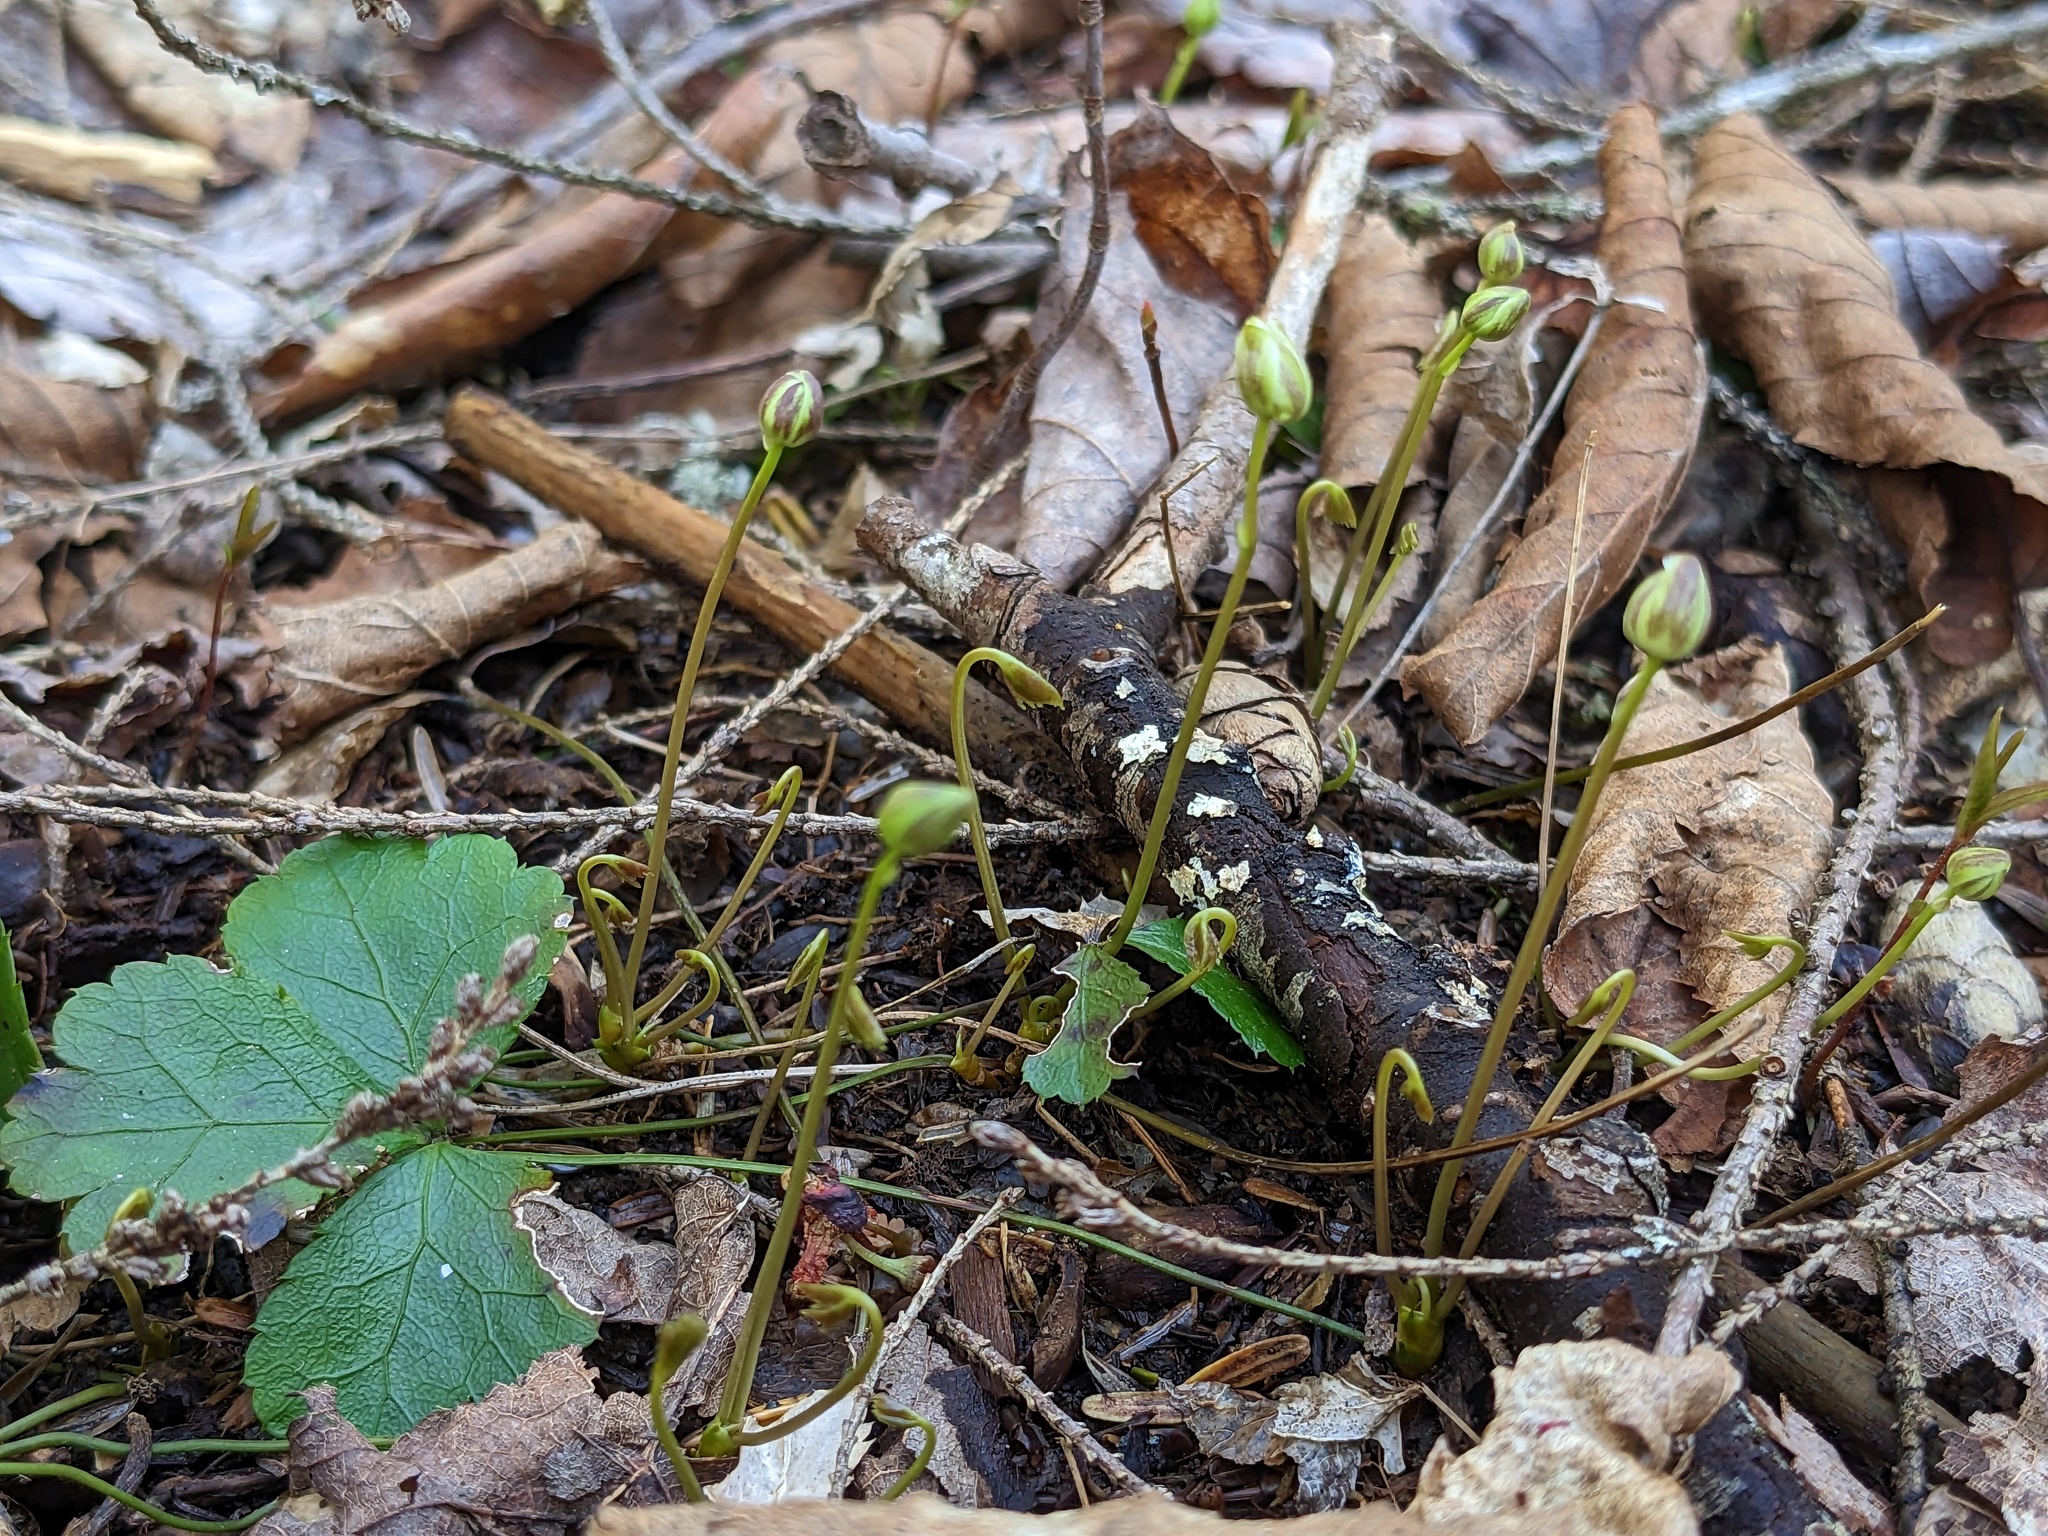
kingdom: Plantae
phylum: Tracheophyta
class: Magnoliopsida
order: Ranunculales
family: Ranunculaceae
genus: Coptis
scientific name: Coptis trifolia
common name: Canker-root
